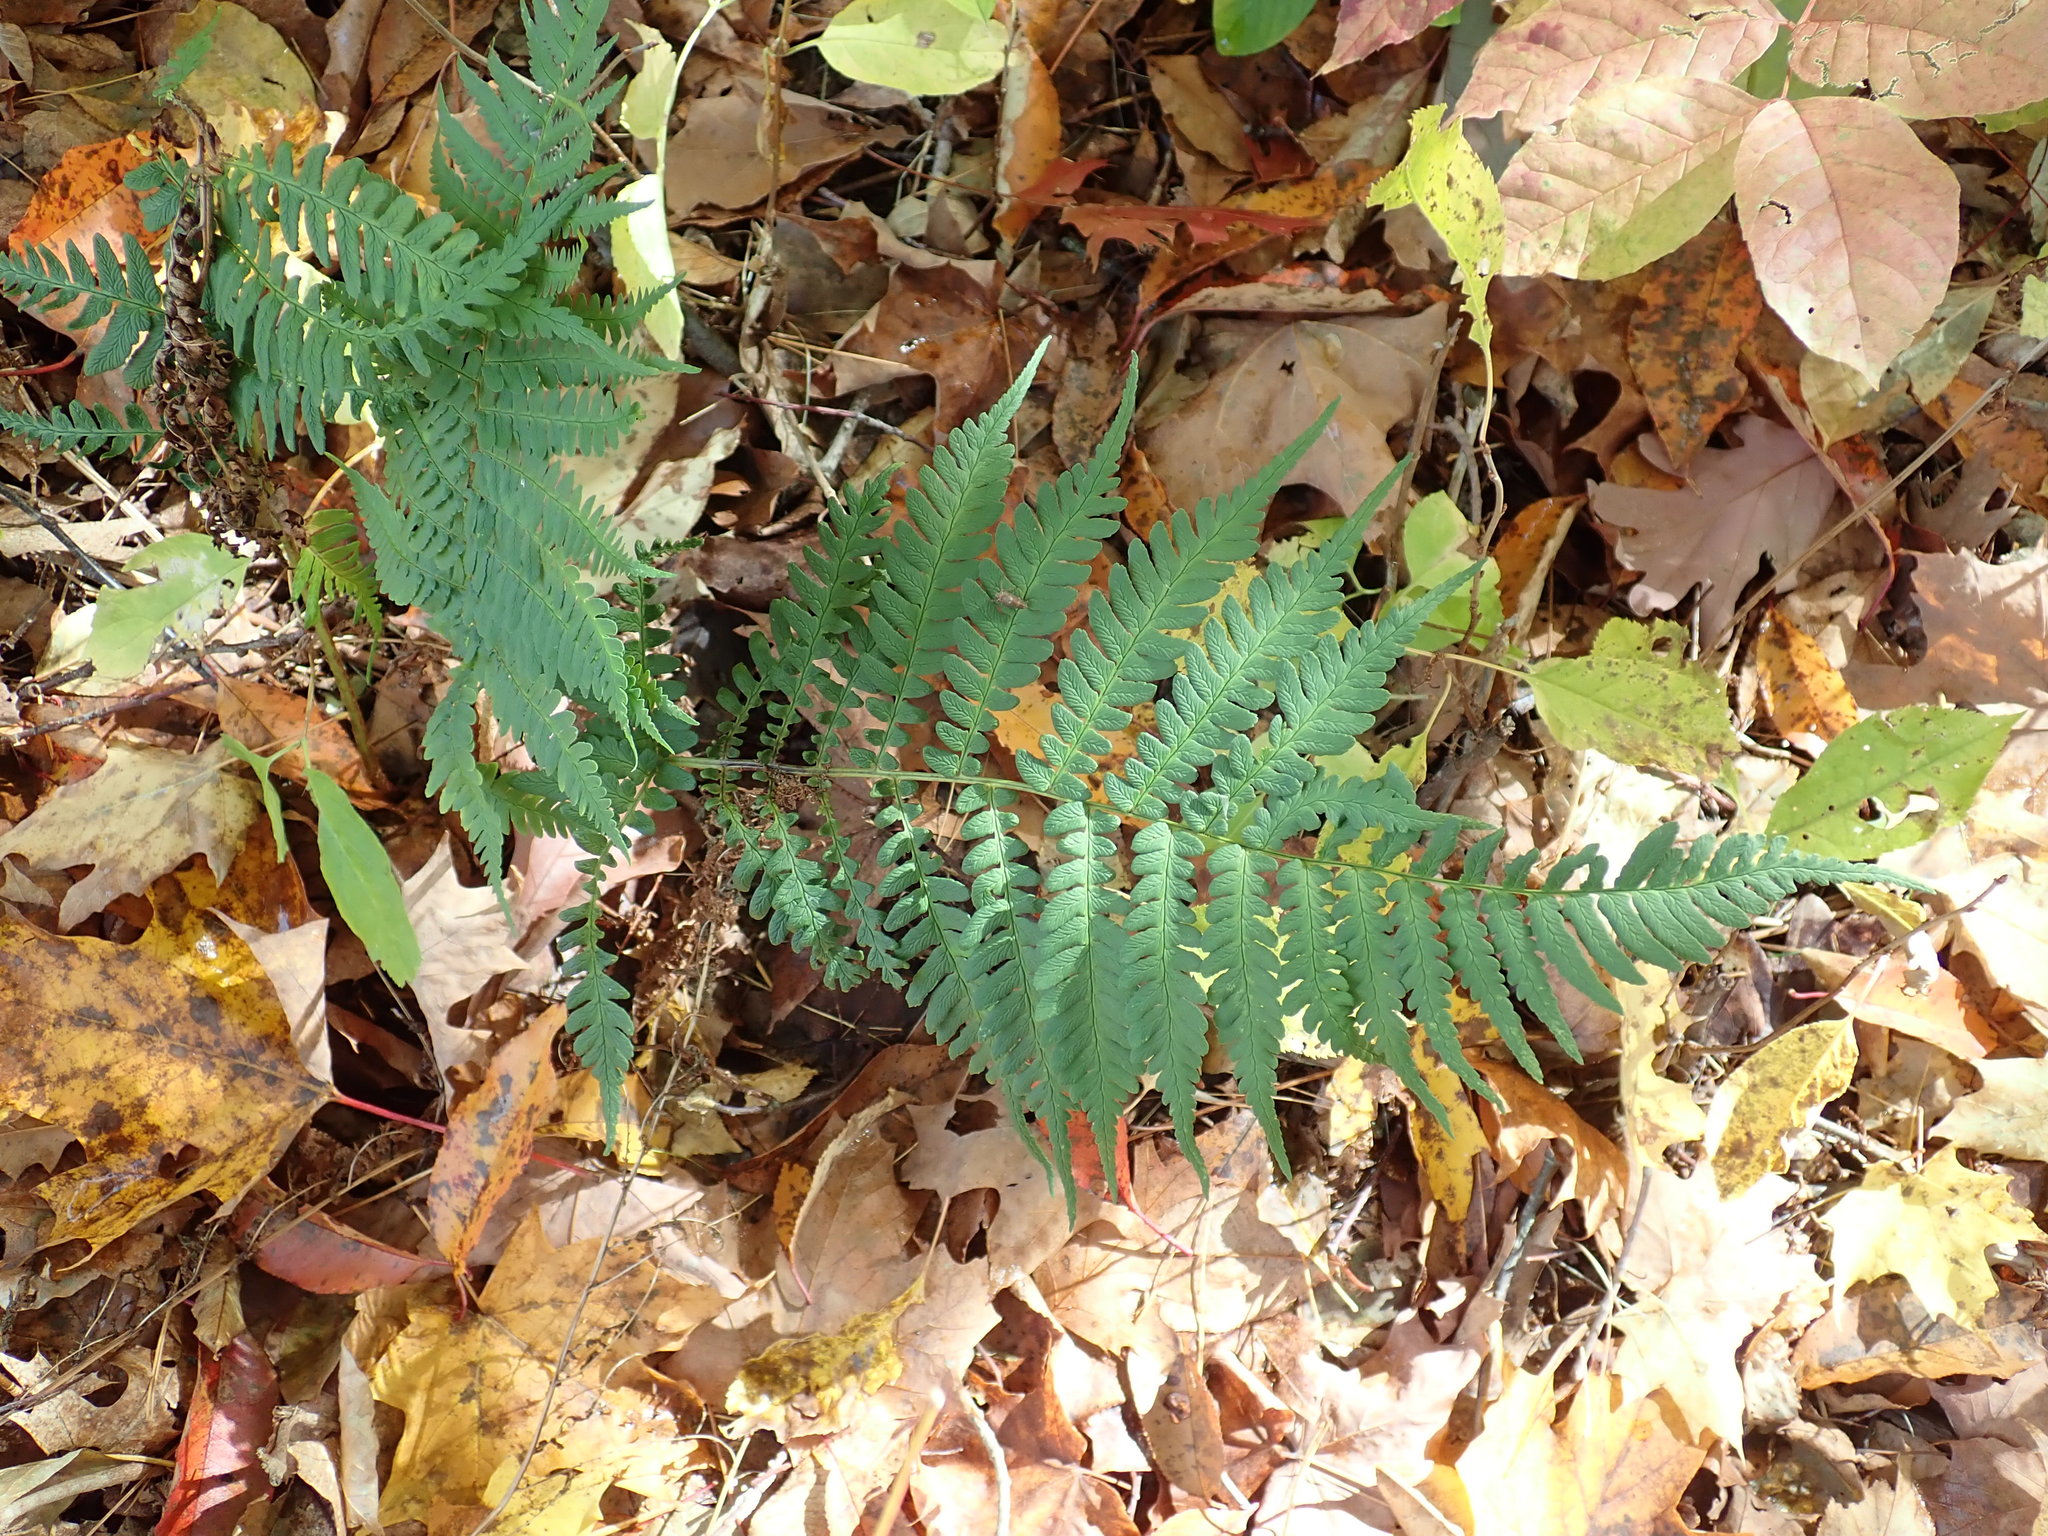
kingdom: Plantae
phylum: Tracheophyta
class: Polypodiopsida
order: Polypodiales
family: Dryopteridaceae
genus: Dryopteris
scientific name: Dryopteris marginalis
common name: Marginal wood fern
